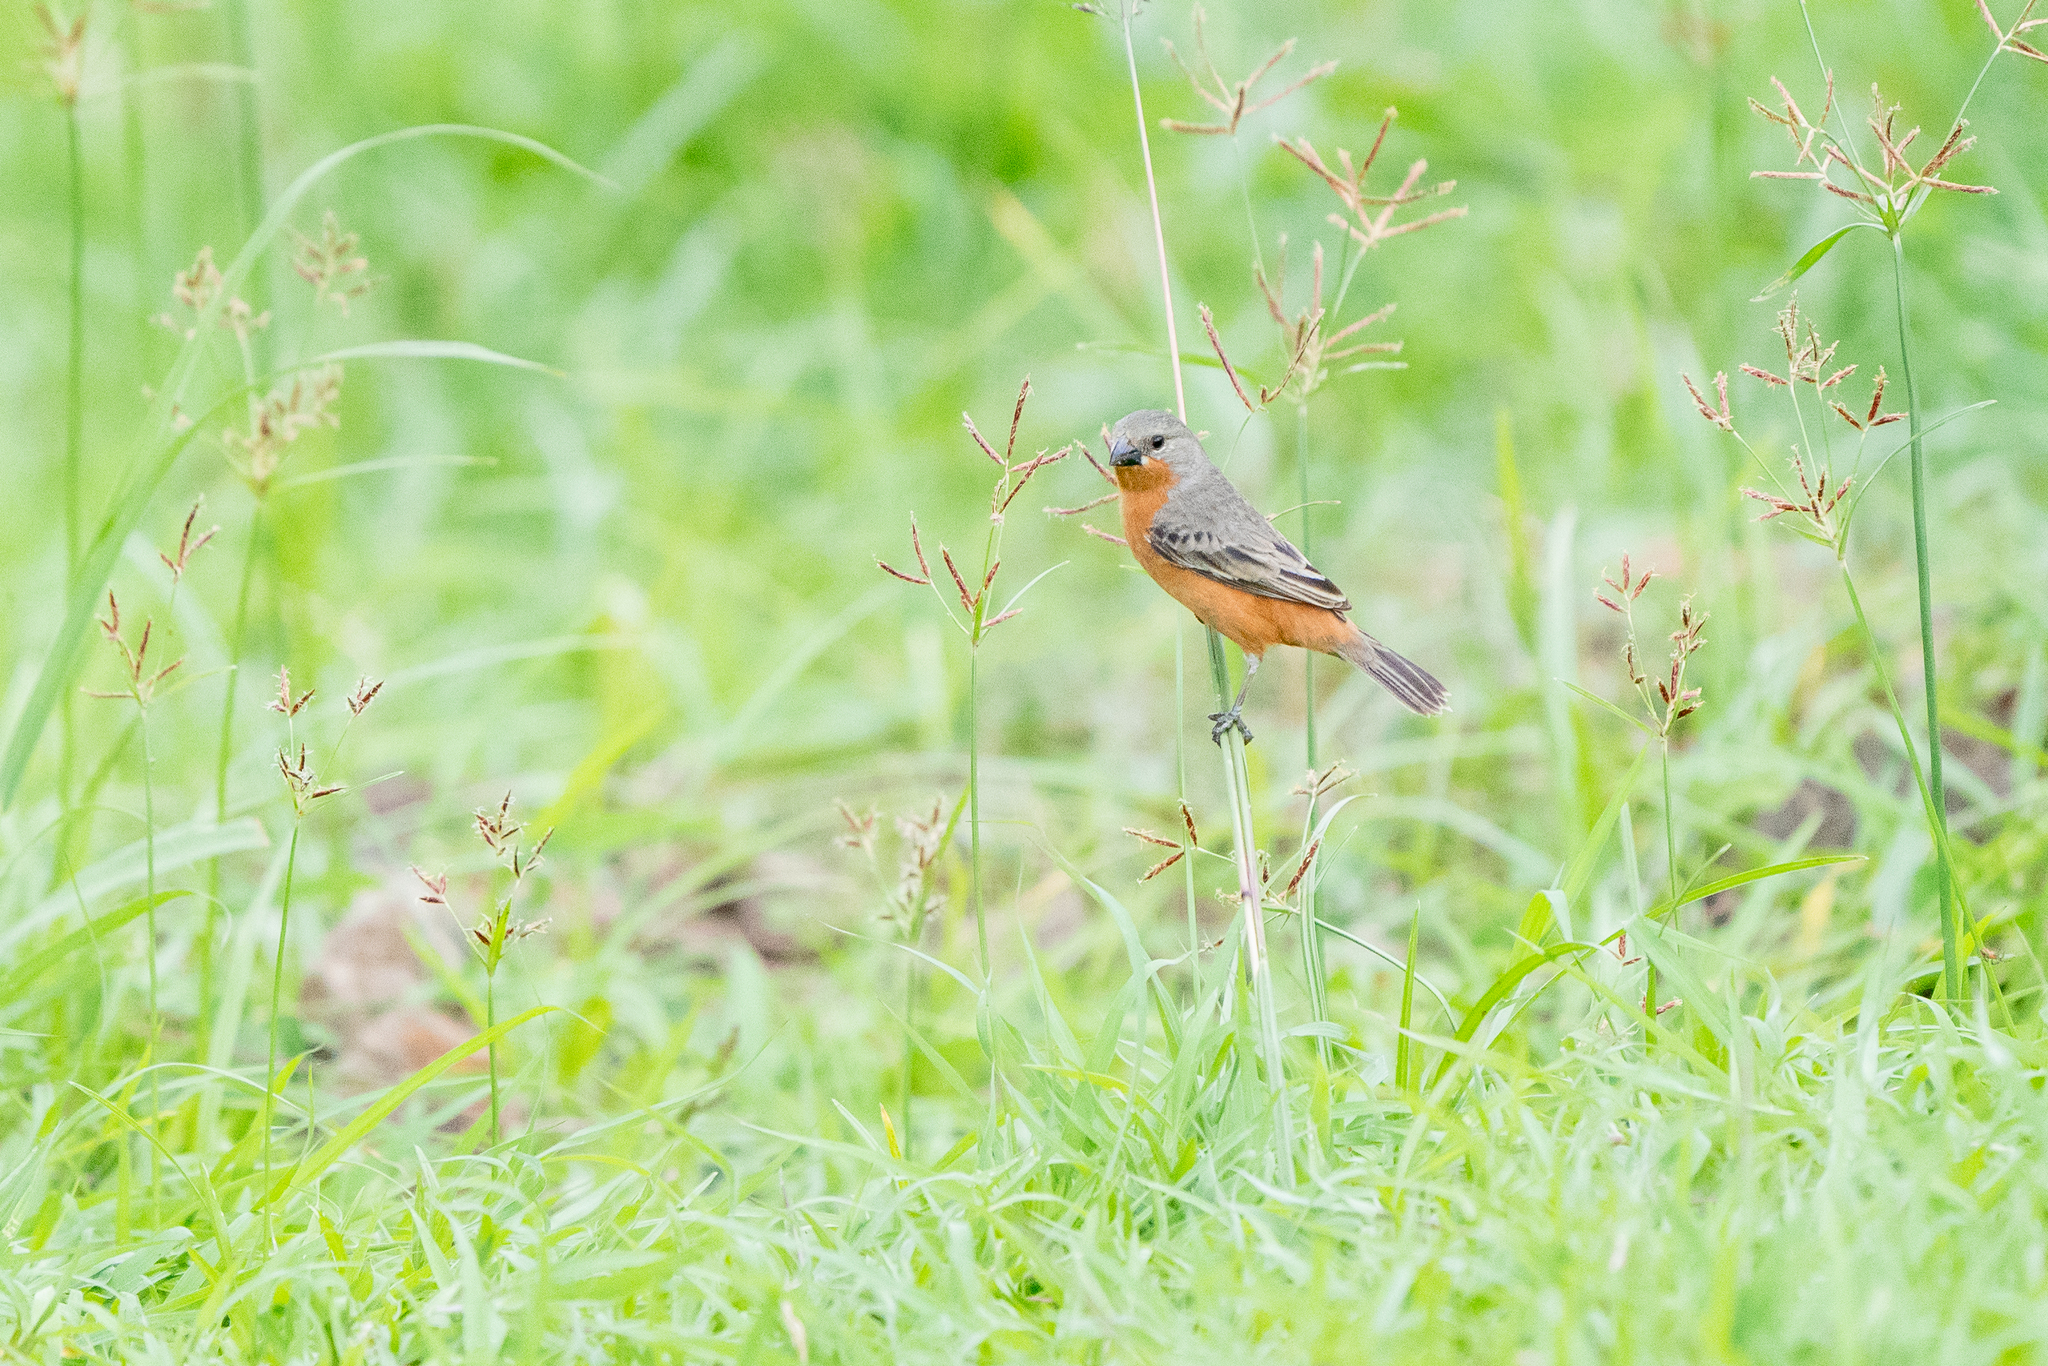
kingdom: Animalia
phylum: Chordata
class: Aves
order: Passeriformes
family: Thraupidae
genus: Sporophila
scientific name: Sporophila minuta
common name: Ruddy-breasted seedeater
